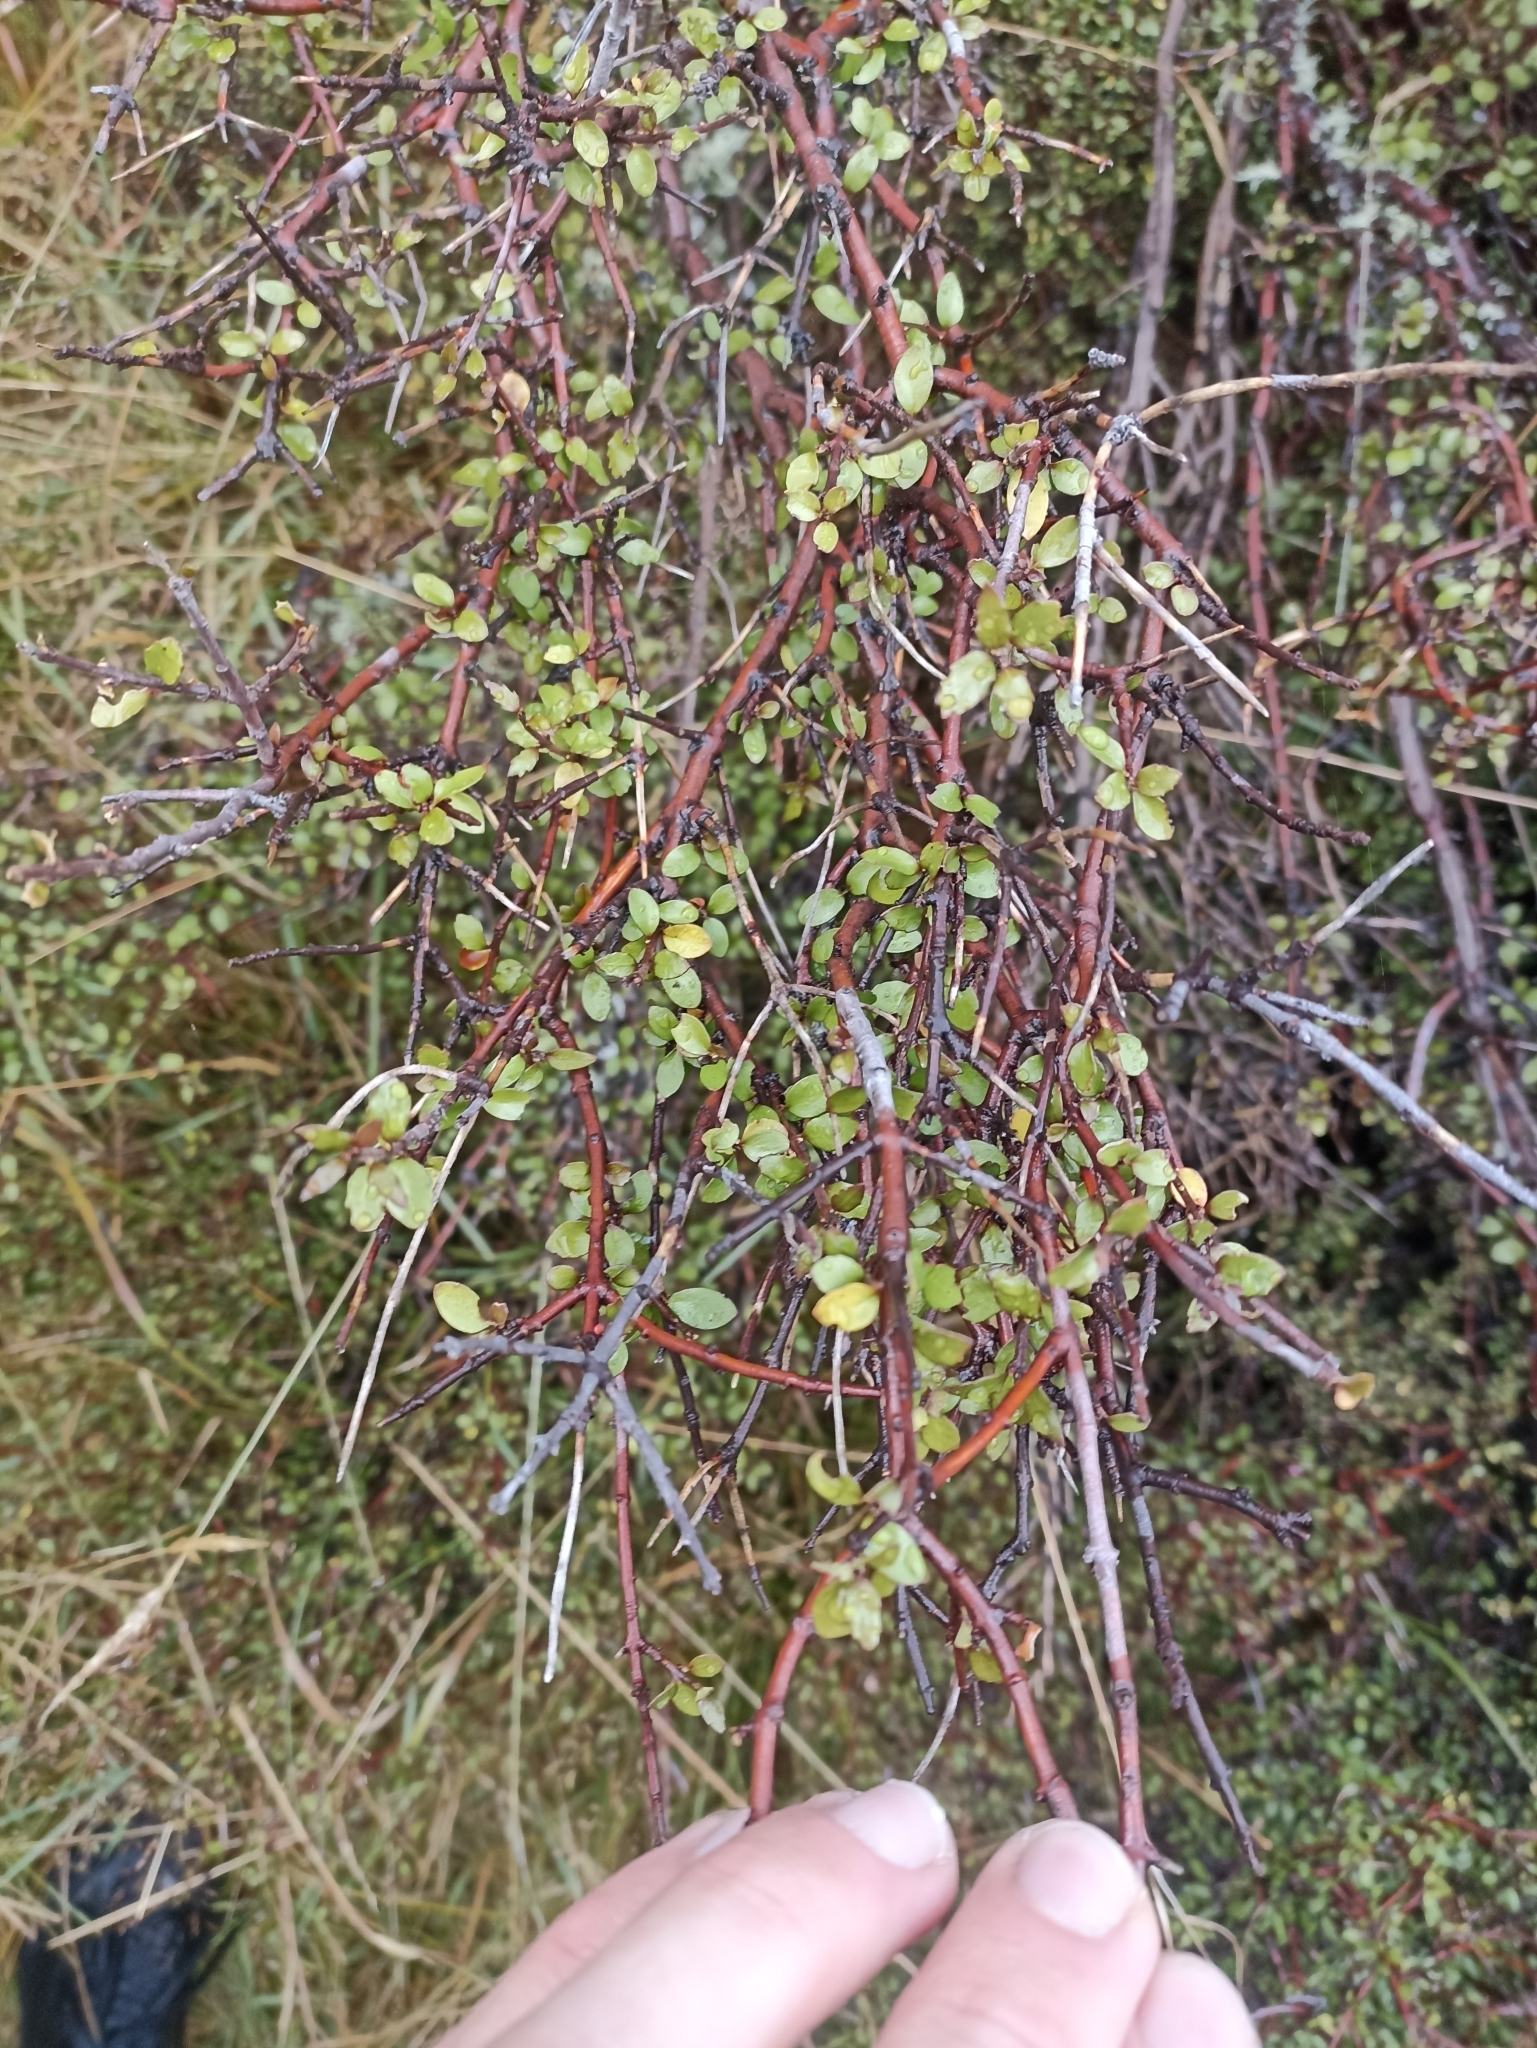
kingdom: Plantae
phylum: Tracheophyta
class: Magnoliopsida
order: Oxalidales
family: Elaeocarpaceae
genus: Aristotelia
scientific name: Aristotelia fruticosa
